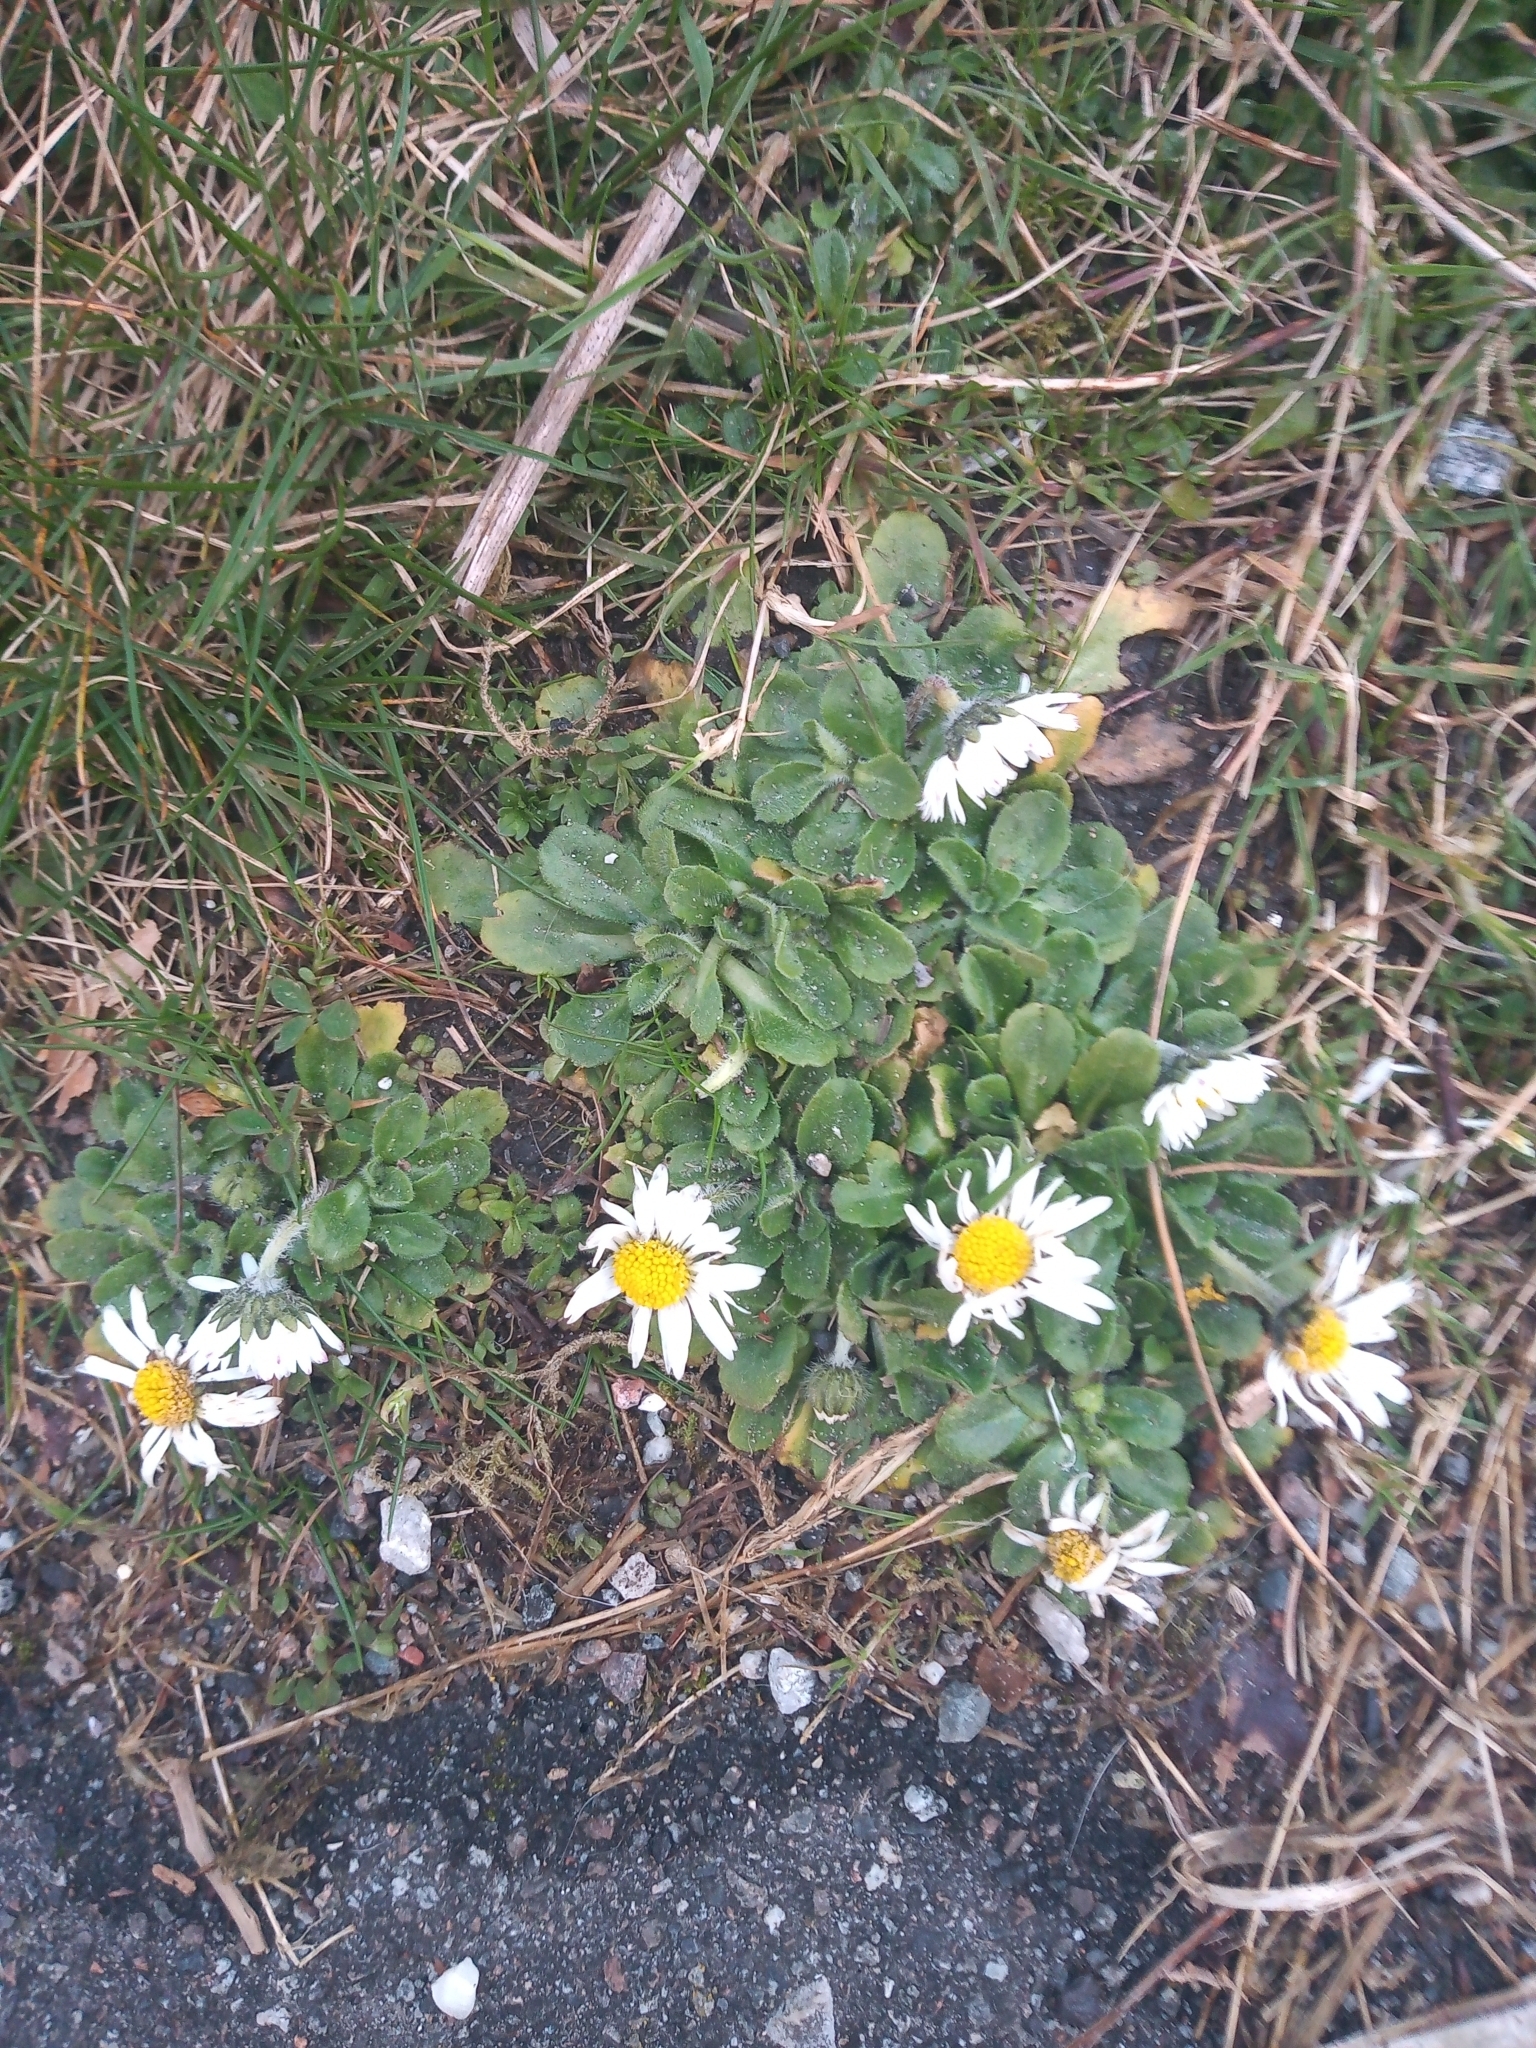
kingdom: Plantae
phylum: Tracheophyta
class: Magnoliopsida
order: Asterales
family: Asteraceae
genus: Bellis
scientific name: Bellis perennis
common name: Lawndaisy
